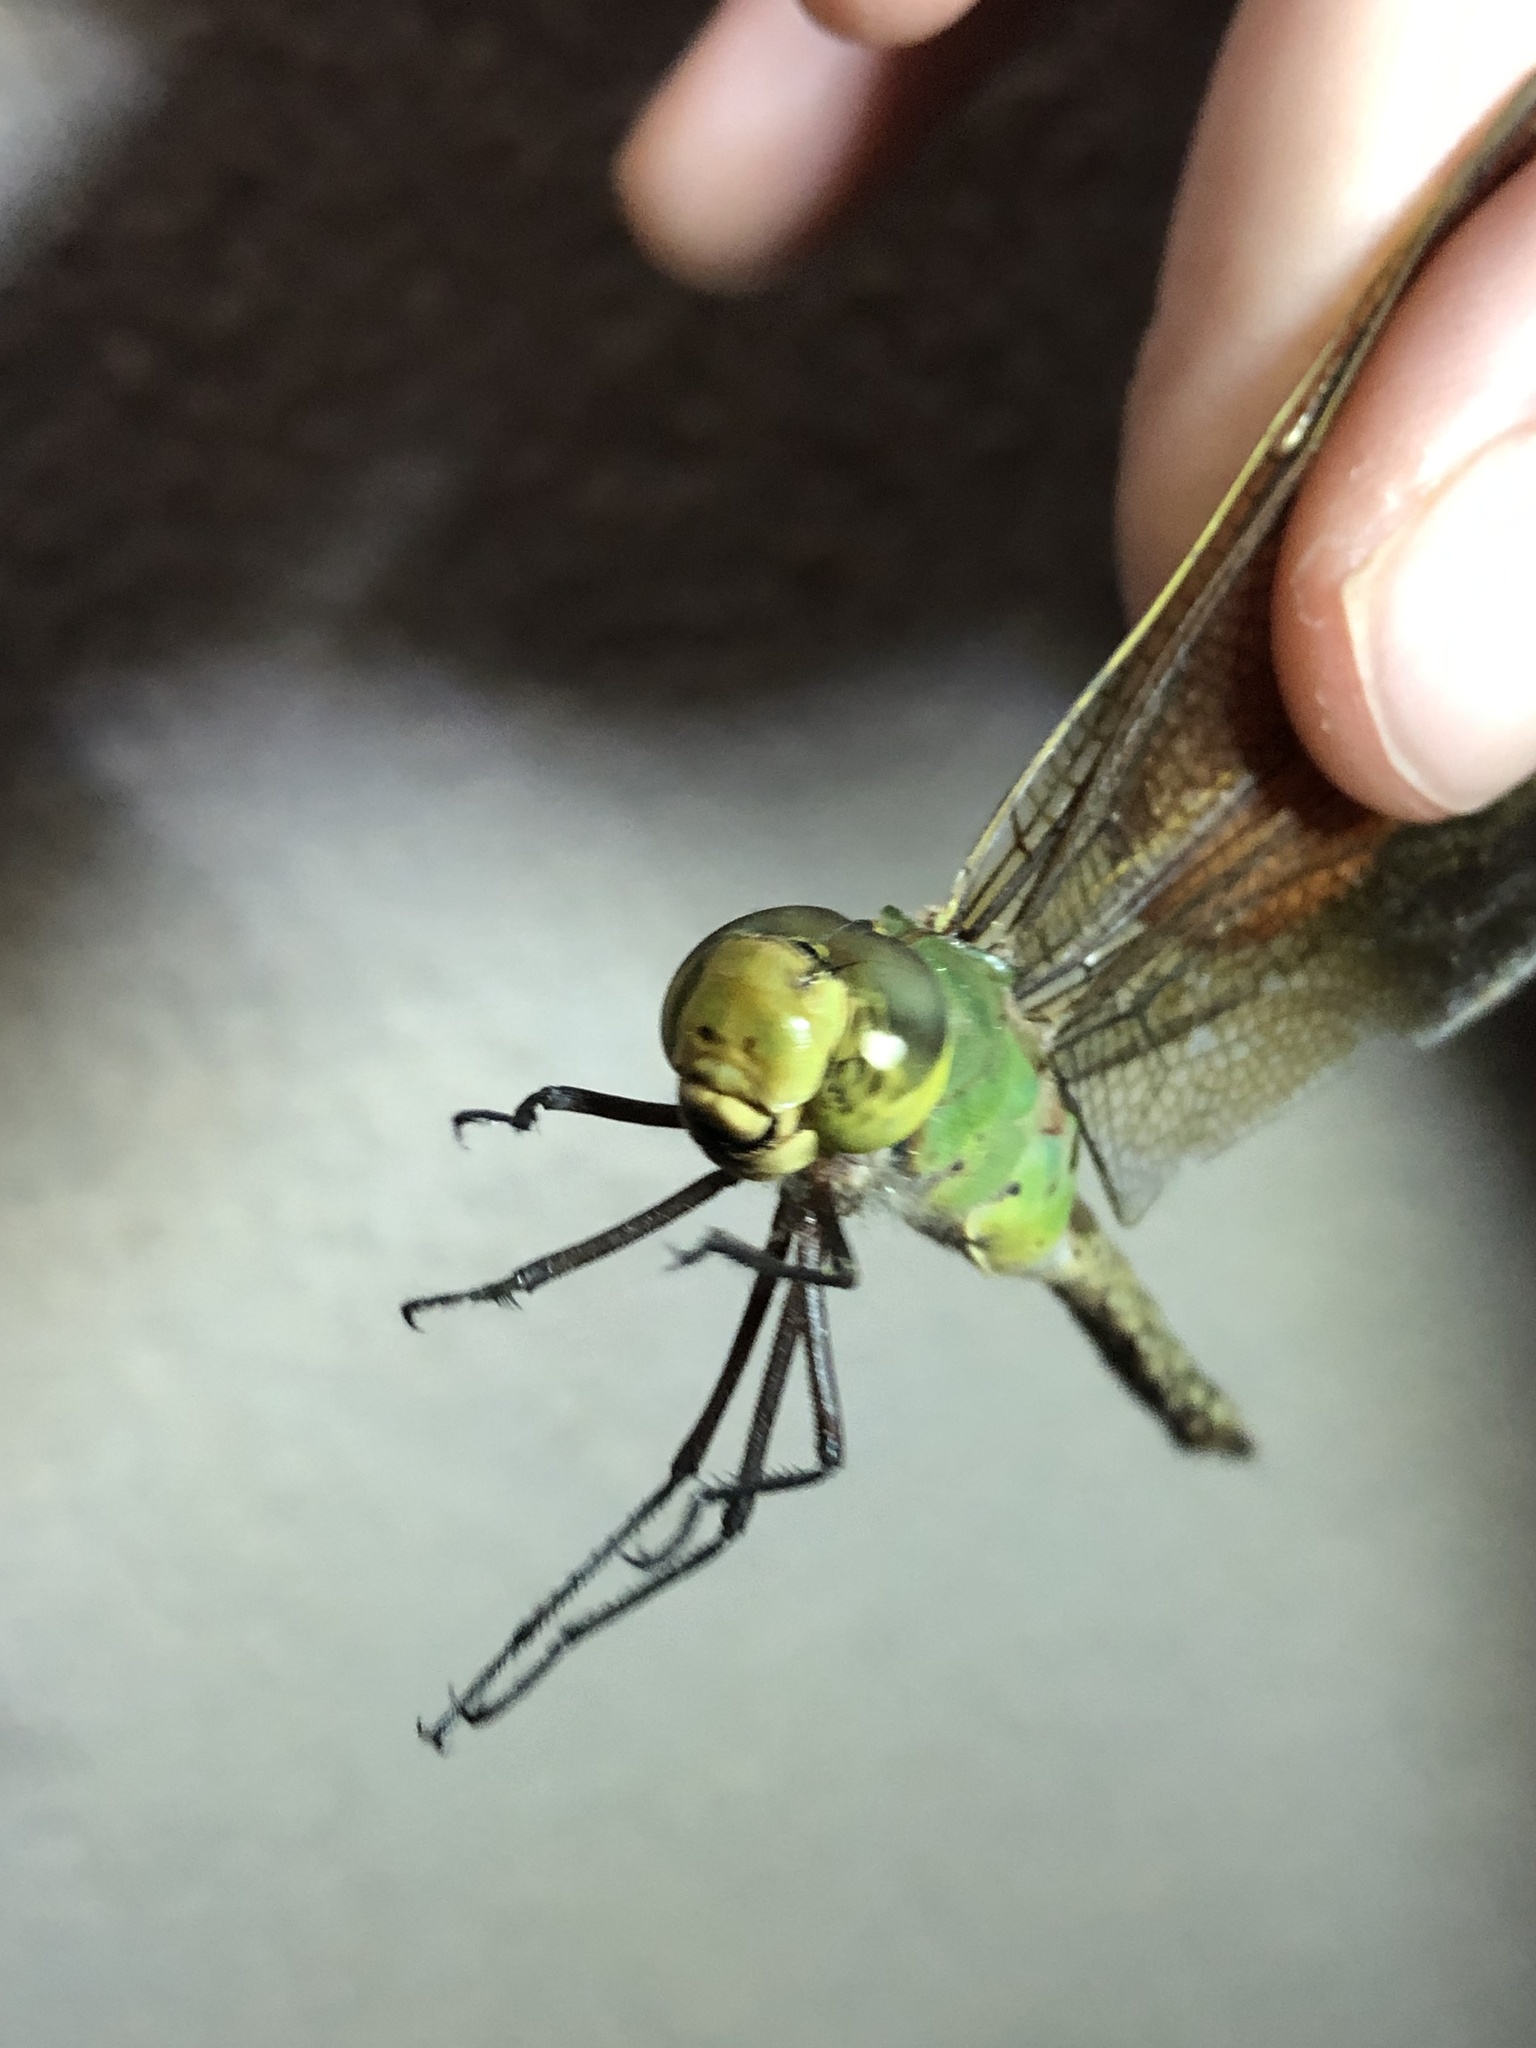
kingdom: Animalia
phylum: Arthropoda
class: Insecta
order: Odonata
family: Aeshnidae
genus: Anax
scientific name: Anax junius
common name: Common green darner
